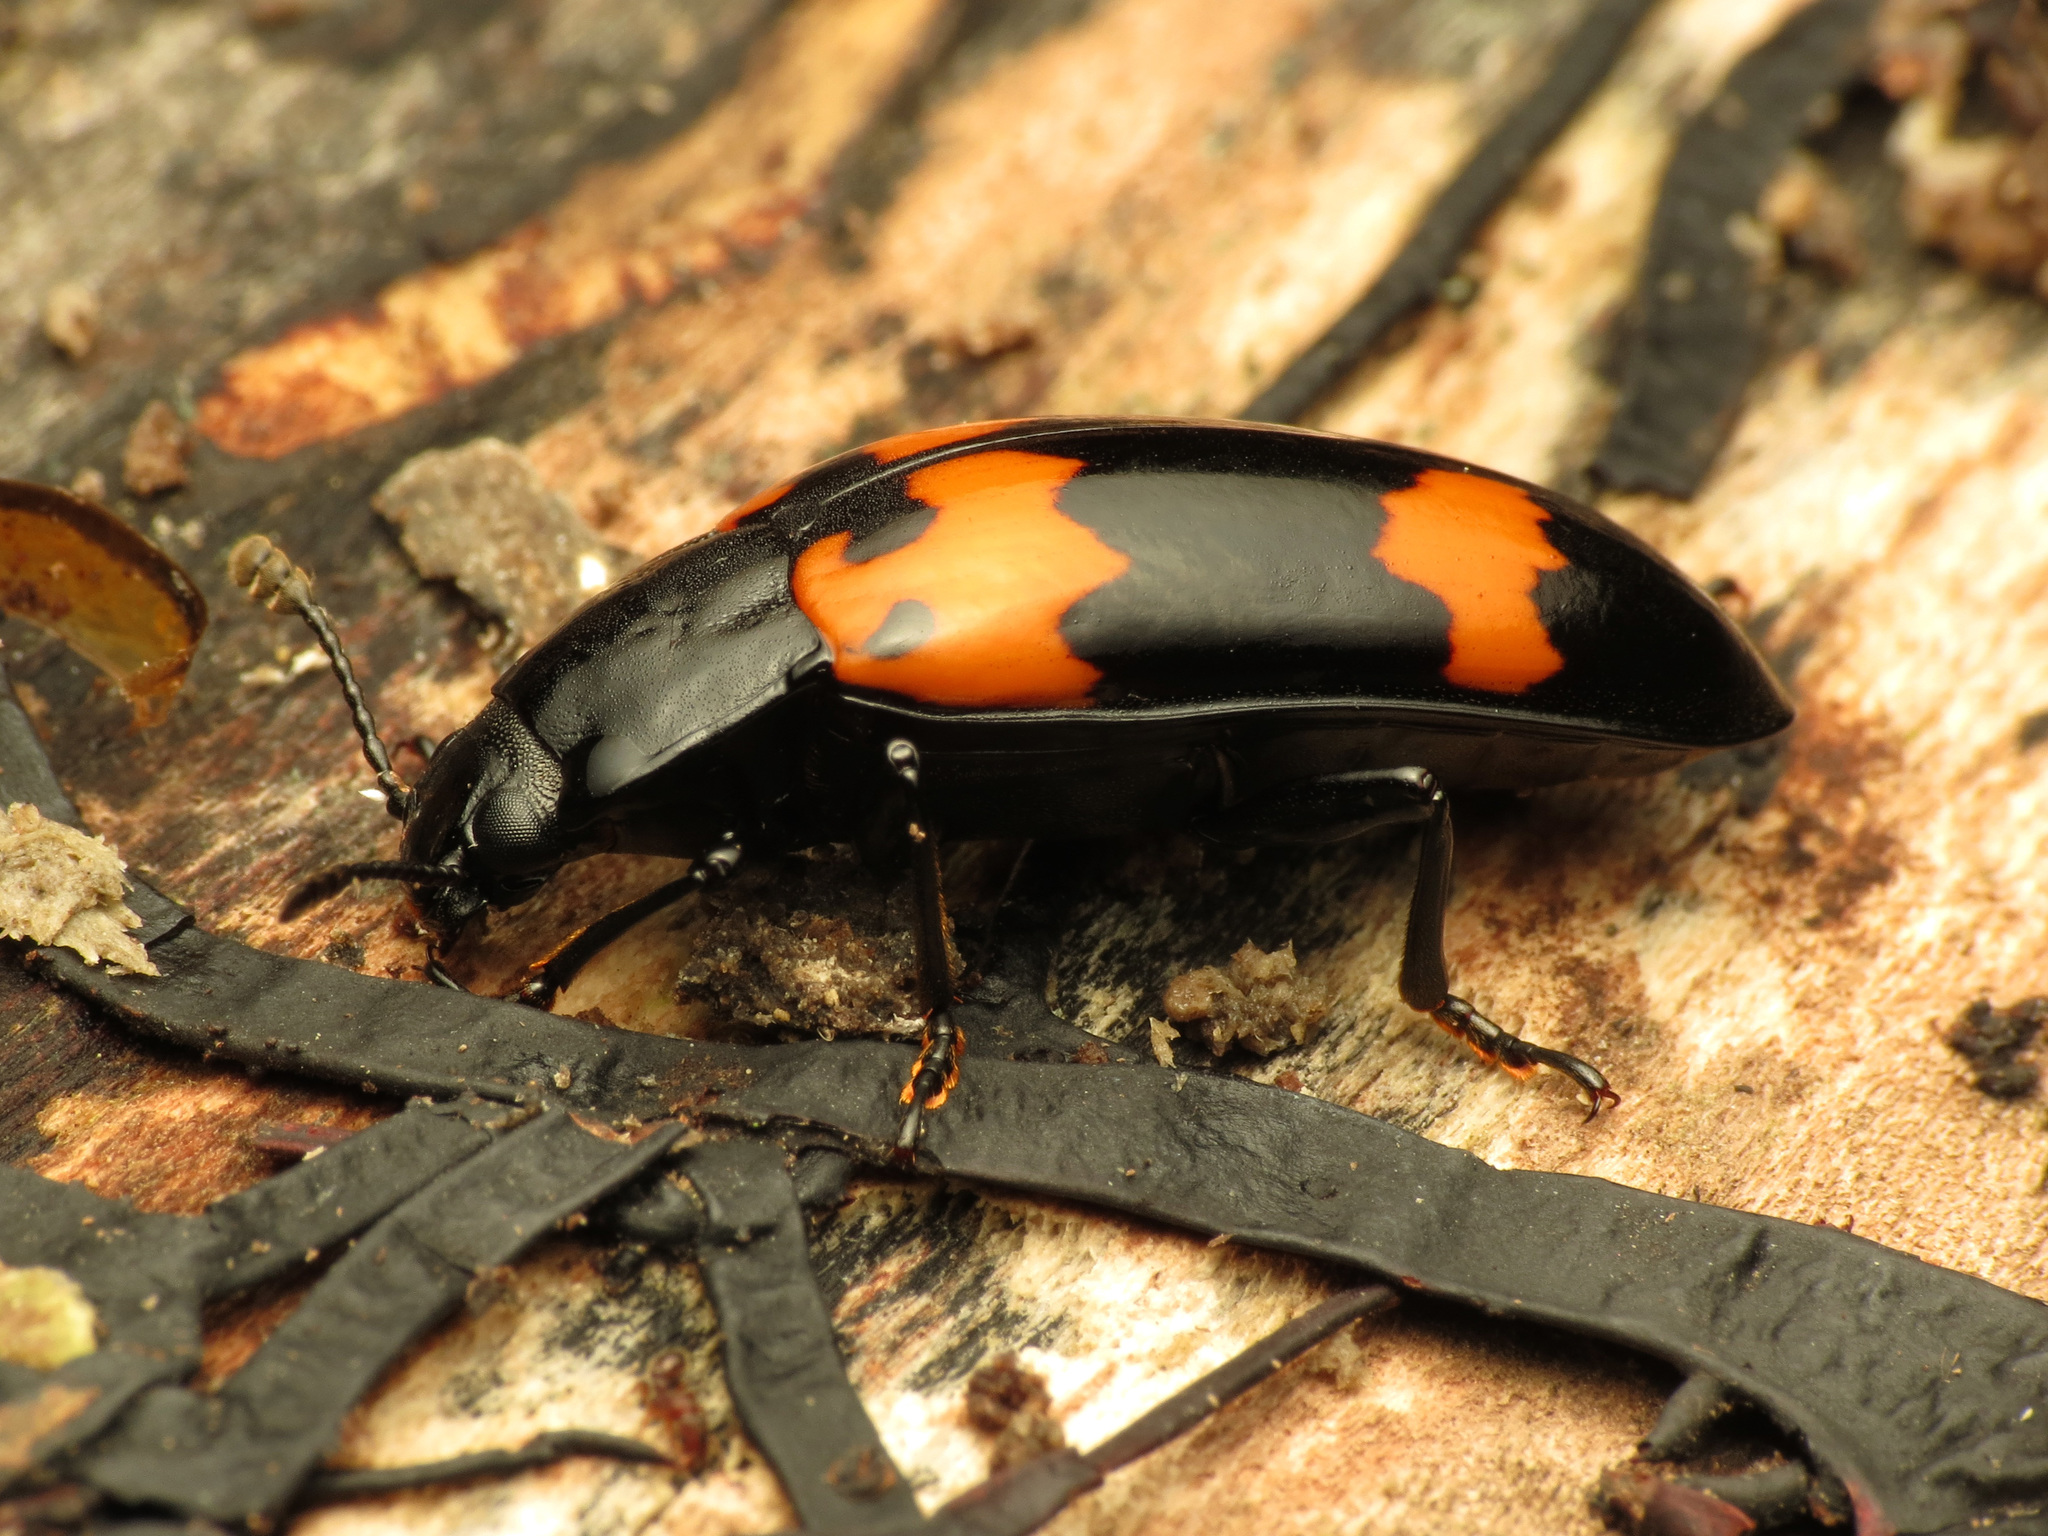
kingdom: Animalia
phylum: Arthropoda
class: Insecta
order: Coleoptera
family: Erotylidae
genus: Megalodacne
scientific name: Megalodacne heros
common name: Pleasing fungus beetle
